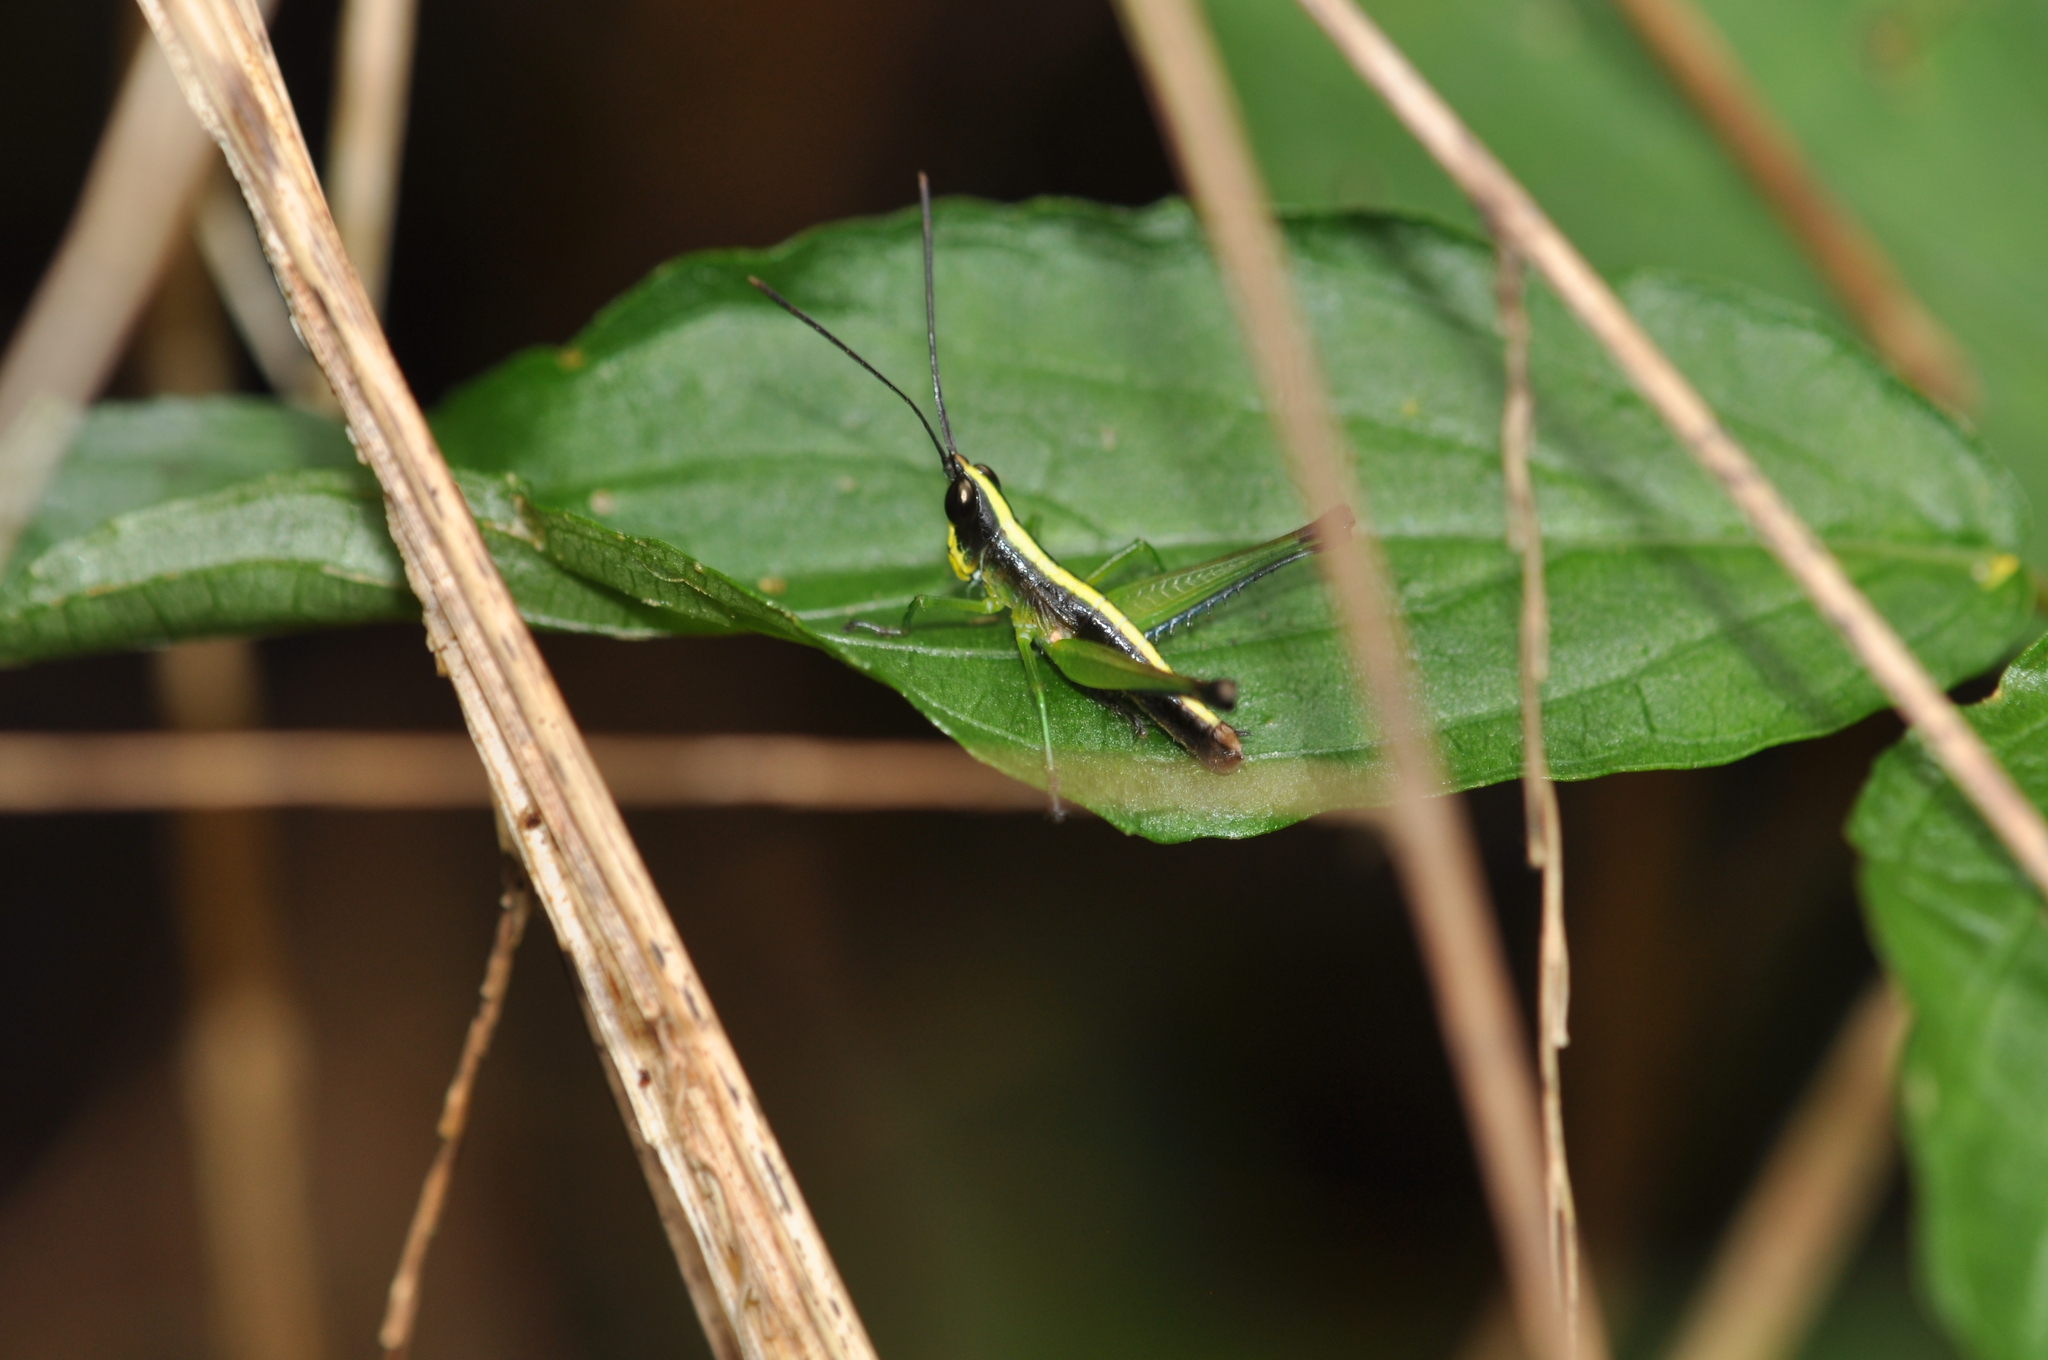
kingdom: Animalia
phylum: Arthropoda
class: Insecta
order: Orthoptera
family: Acrididae
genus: Chlorophlaeobella
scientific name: Chlorophlaeobella tananarive
